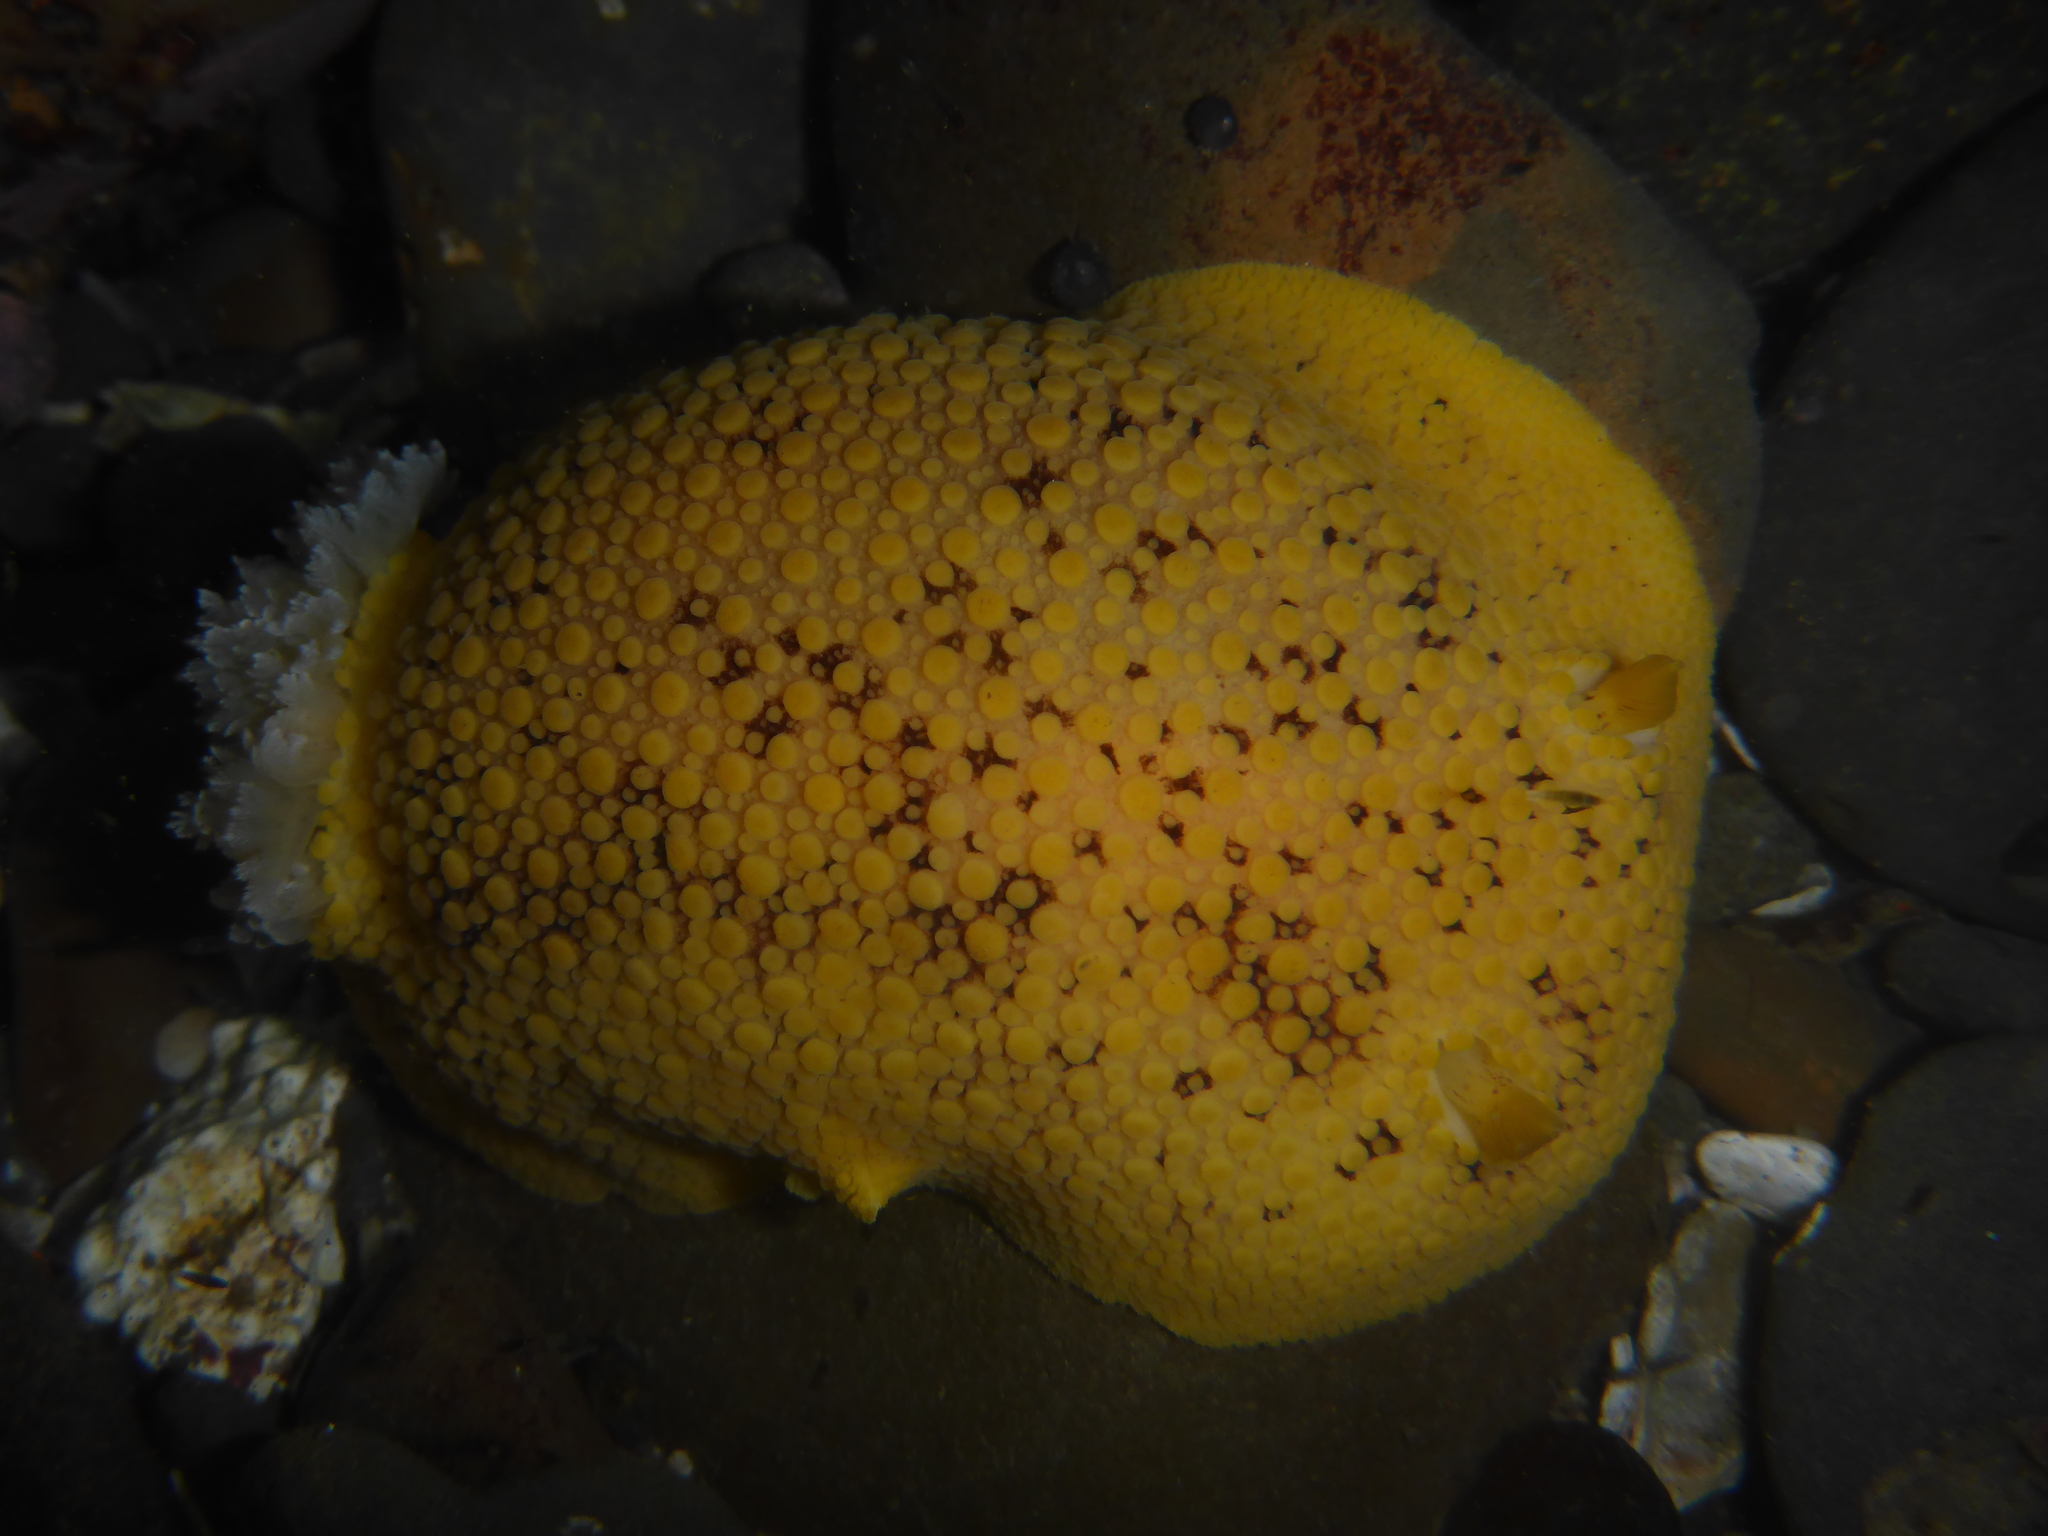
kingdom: Animalia
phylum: Mollusca
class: Gastropoda
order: Nudibranchia
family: Discodorididae
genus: Peltodoris
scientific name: Peltodoris nobilis
